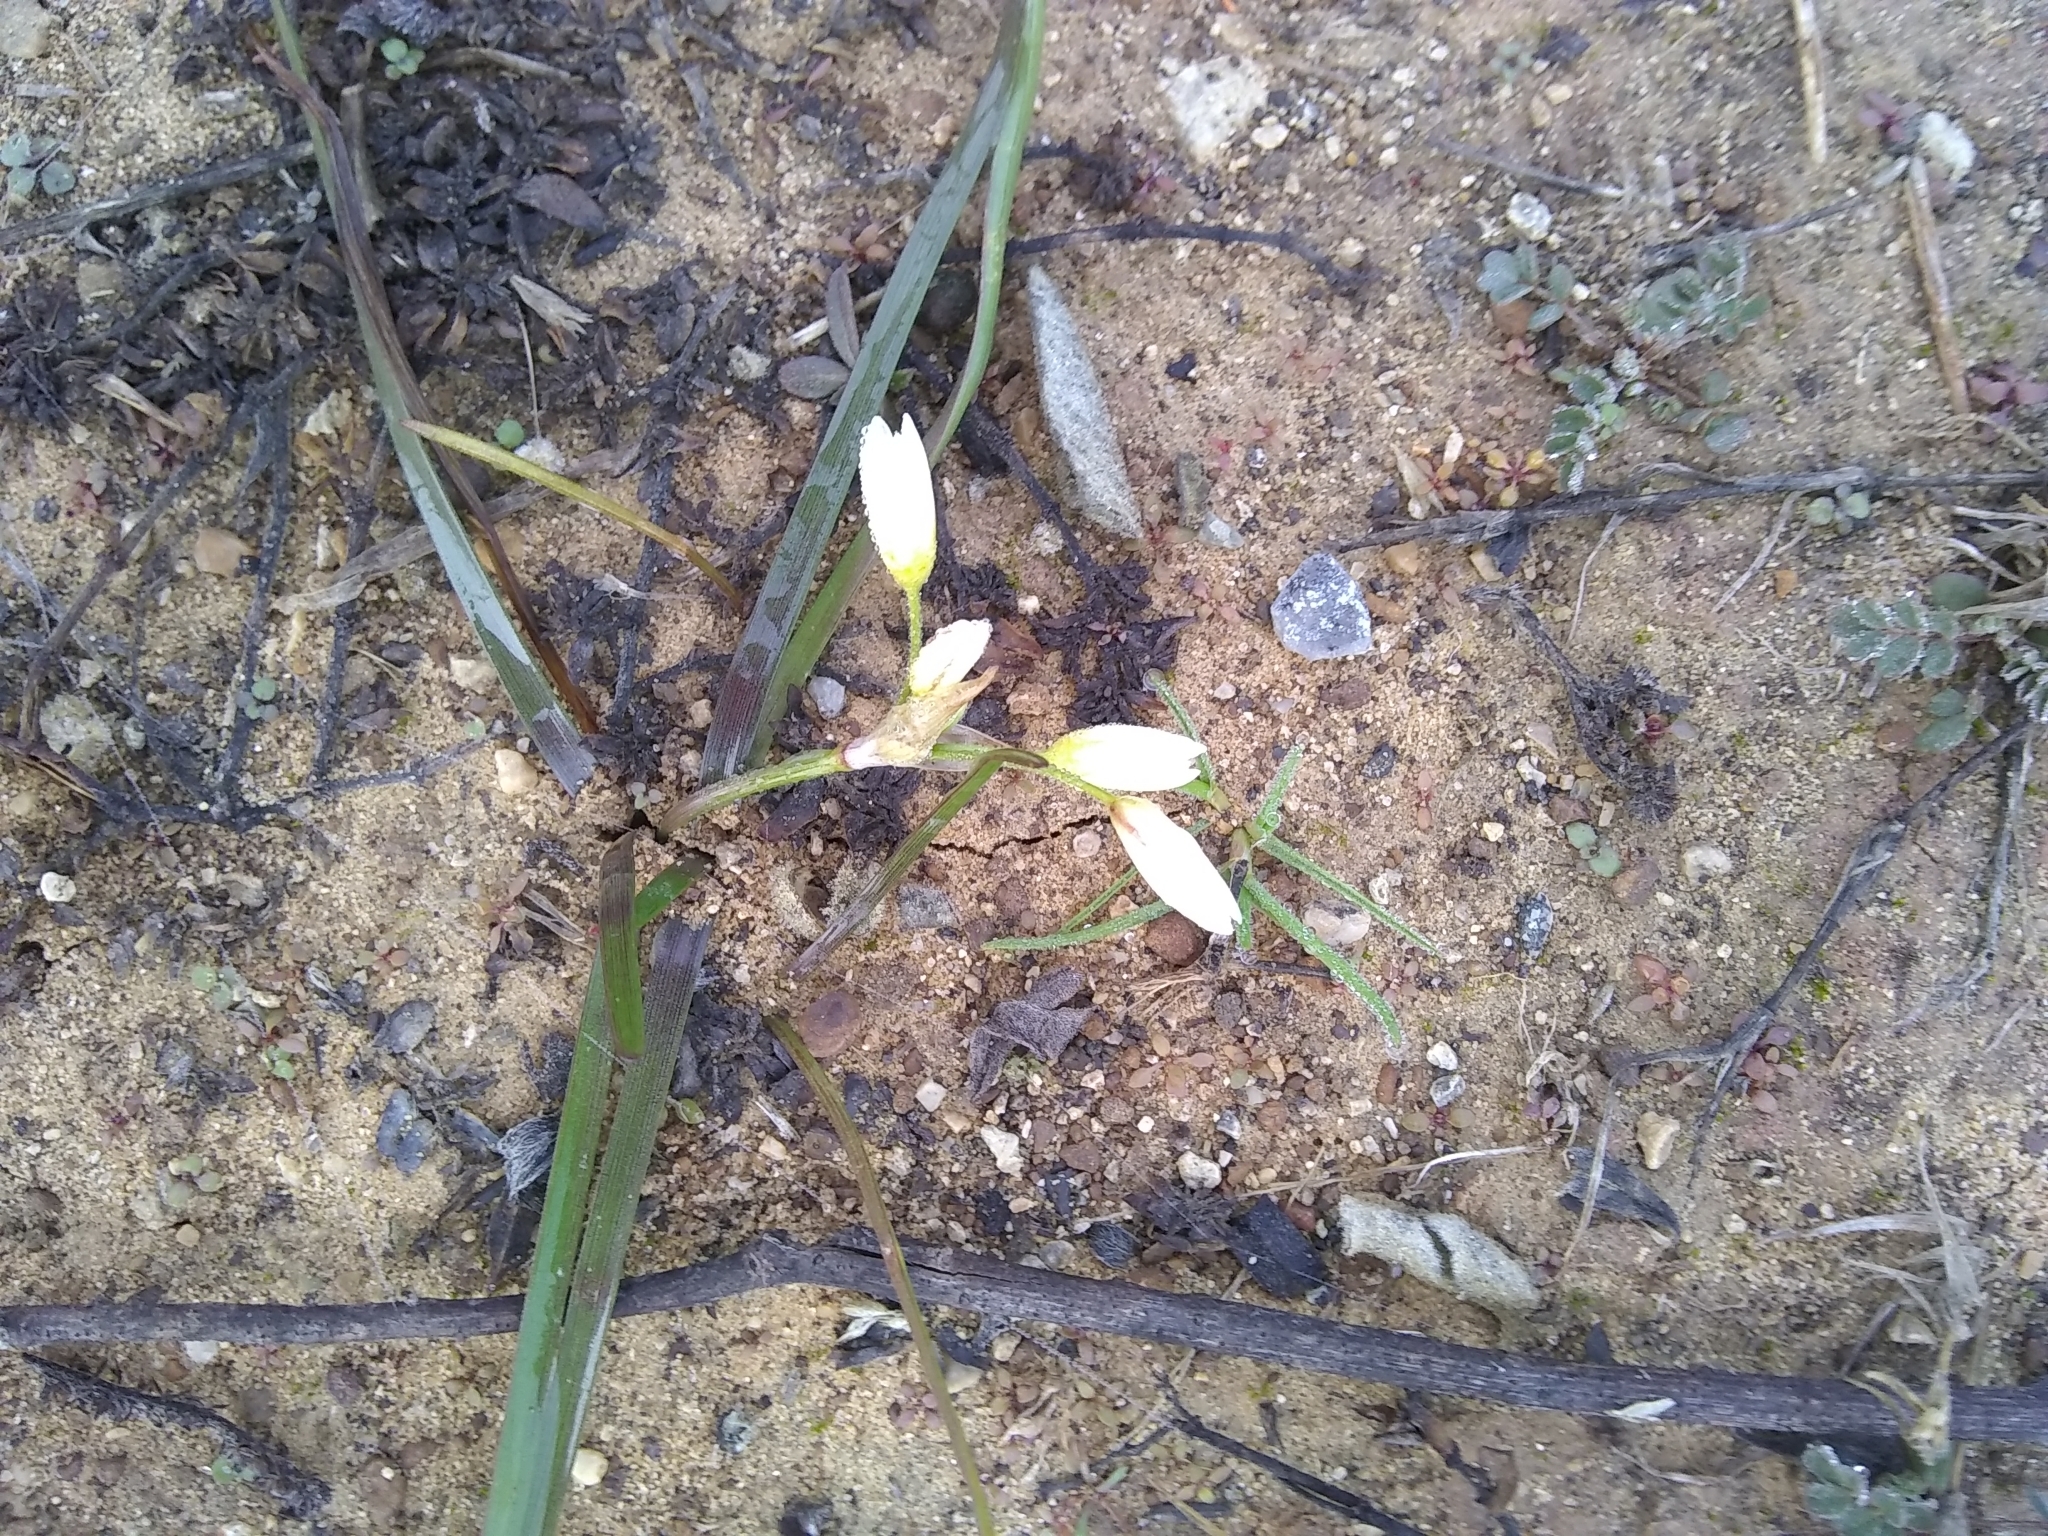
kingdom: Plantae
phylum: Tracheophyta
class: Liliopsida
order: Asparagales
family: Amaryllidaceae
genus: Nothoscordum
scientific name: Nothoscordum bivalve
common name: Crow-poison
